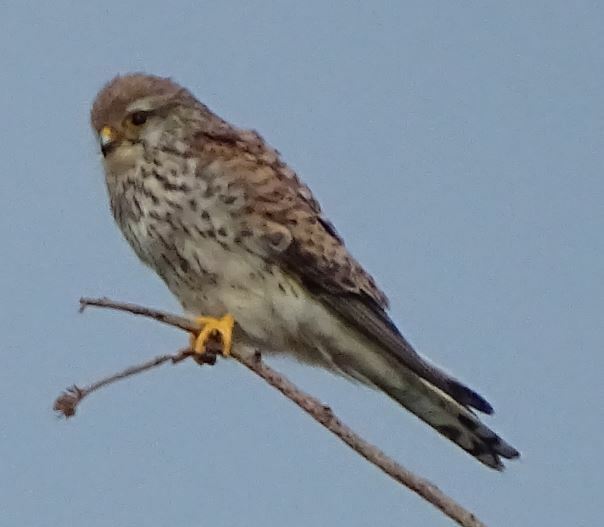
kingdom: Animalia
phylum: Chordata
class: Aves
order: Falconiformes
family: Falconidae
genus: Falco
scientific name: Falco tinnunculus
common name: Common kestrel
